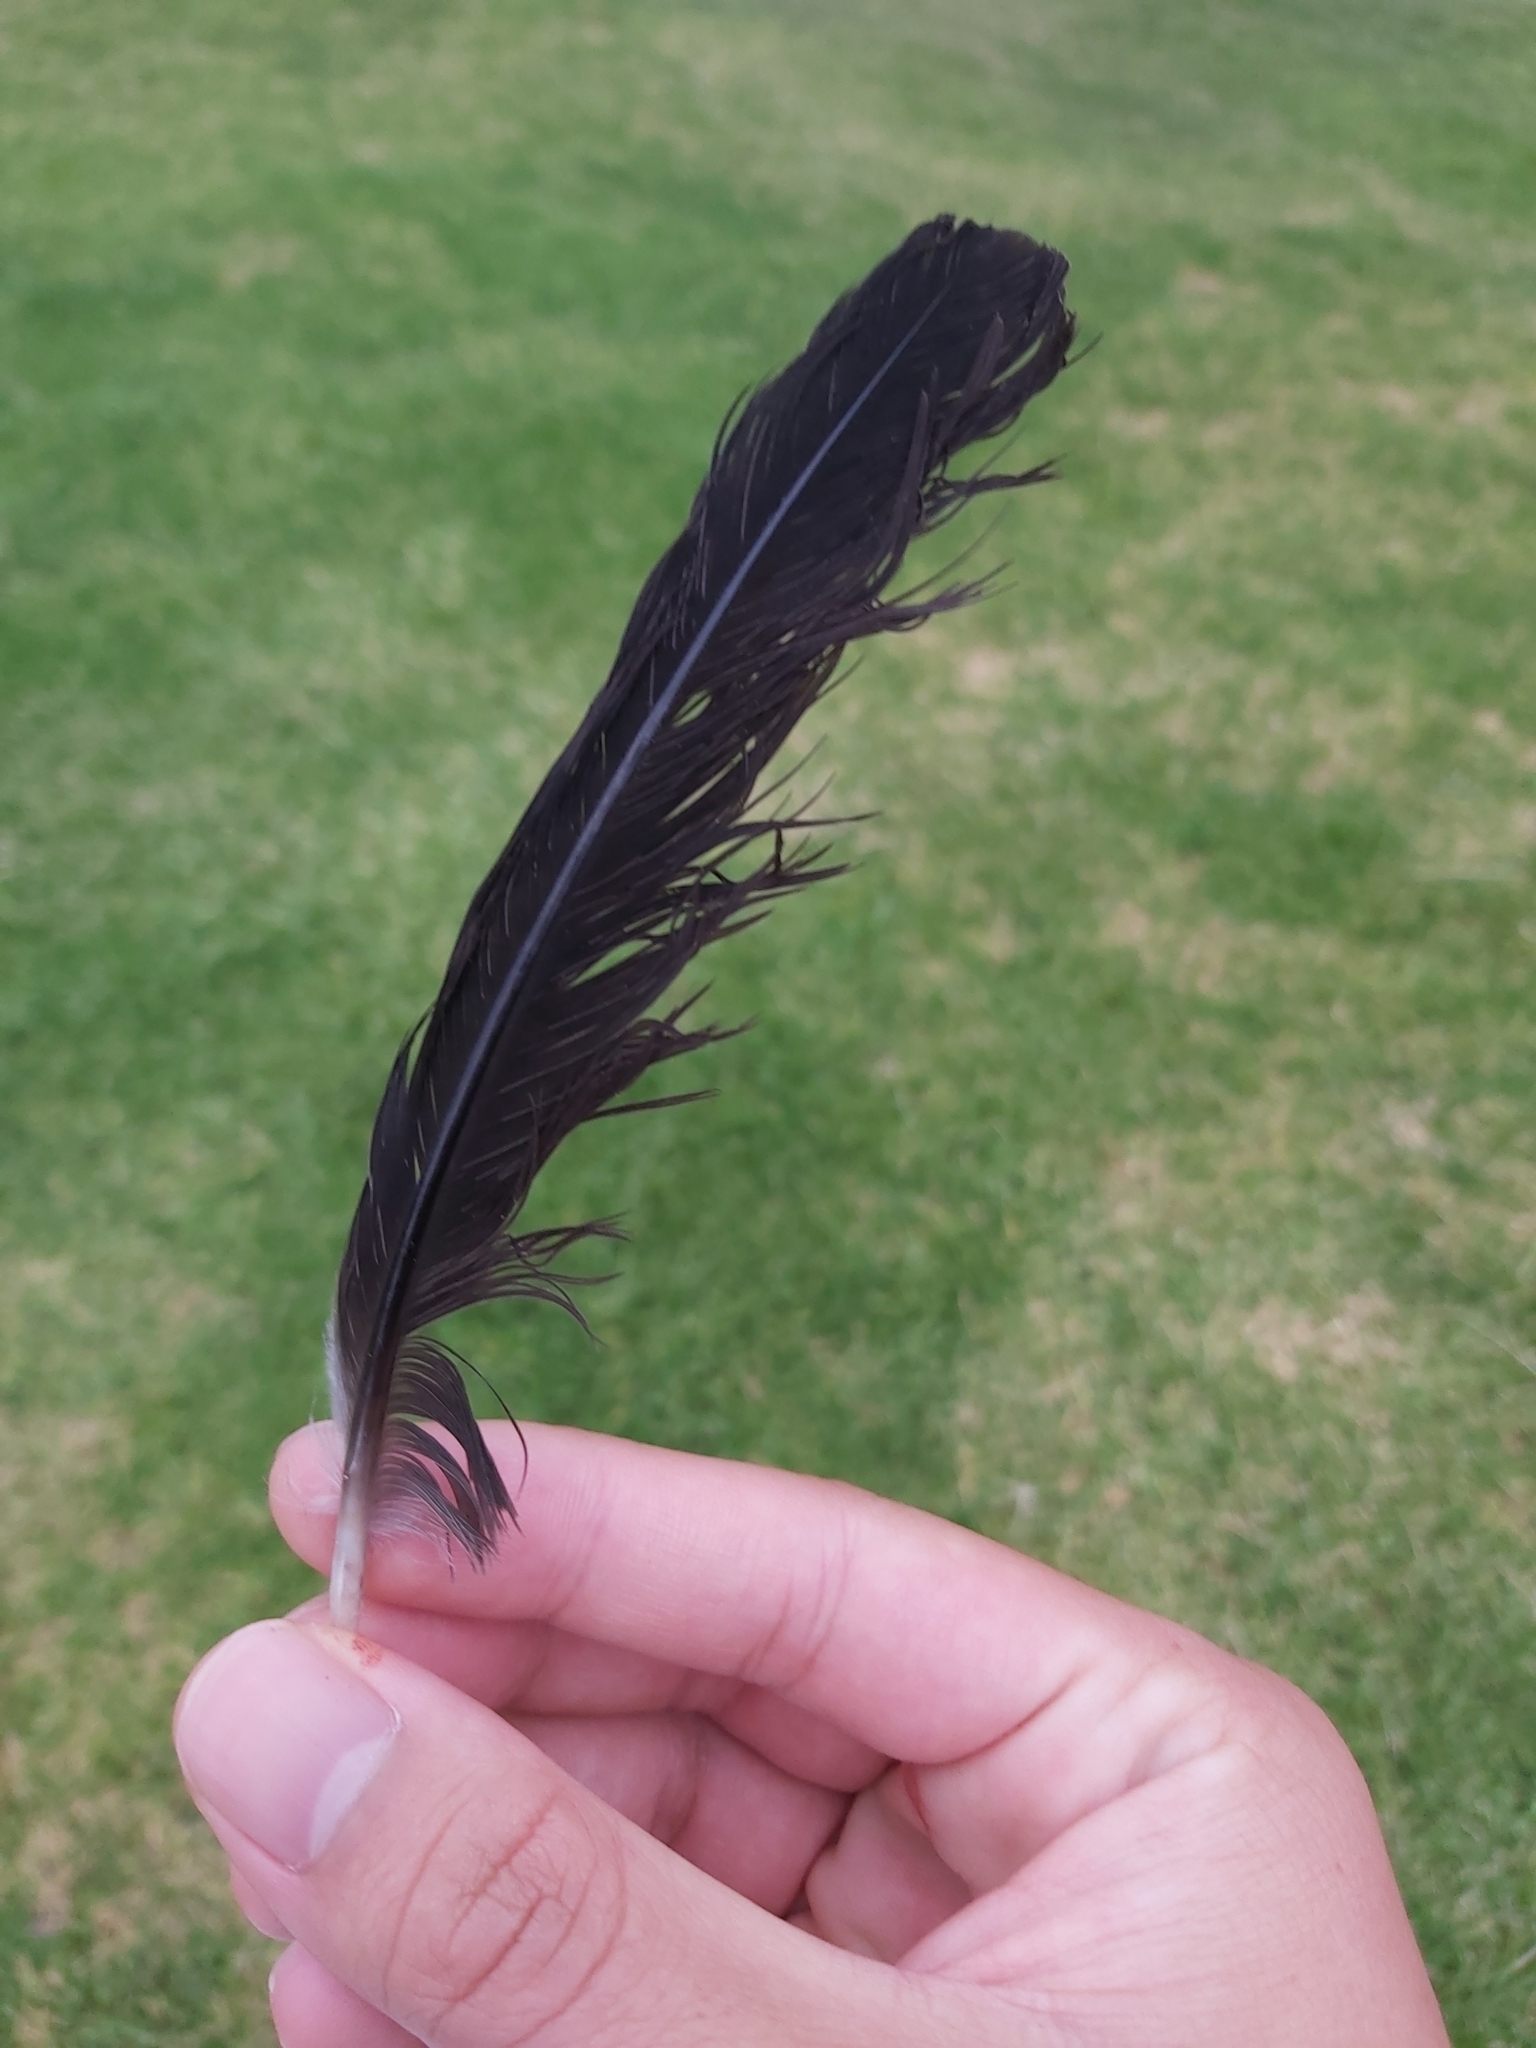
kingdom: Animalia
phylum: Chordata
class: Aves
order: Passeriformes
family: Cracticidae
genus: Gymnorhina
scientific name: Gymnorhina tibicen
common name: Australian magpie
